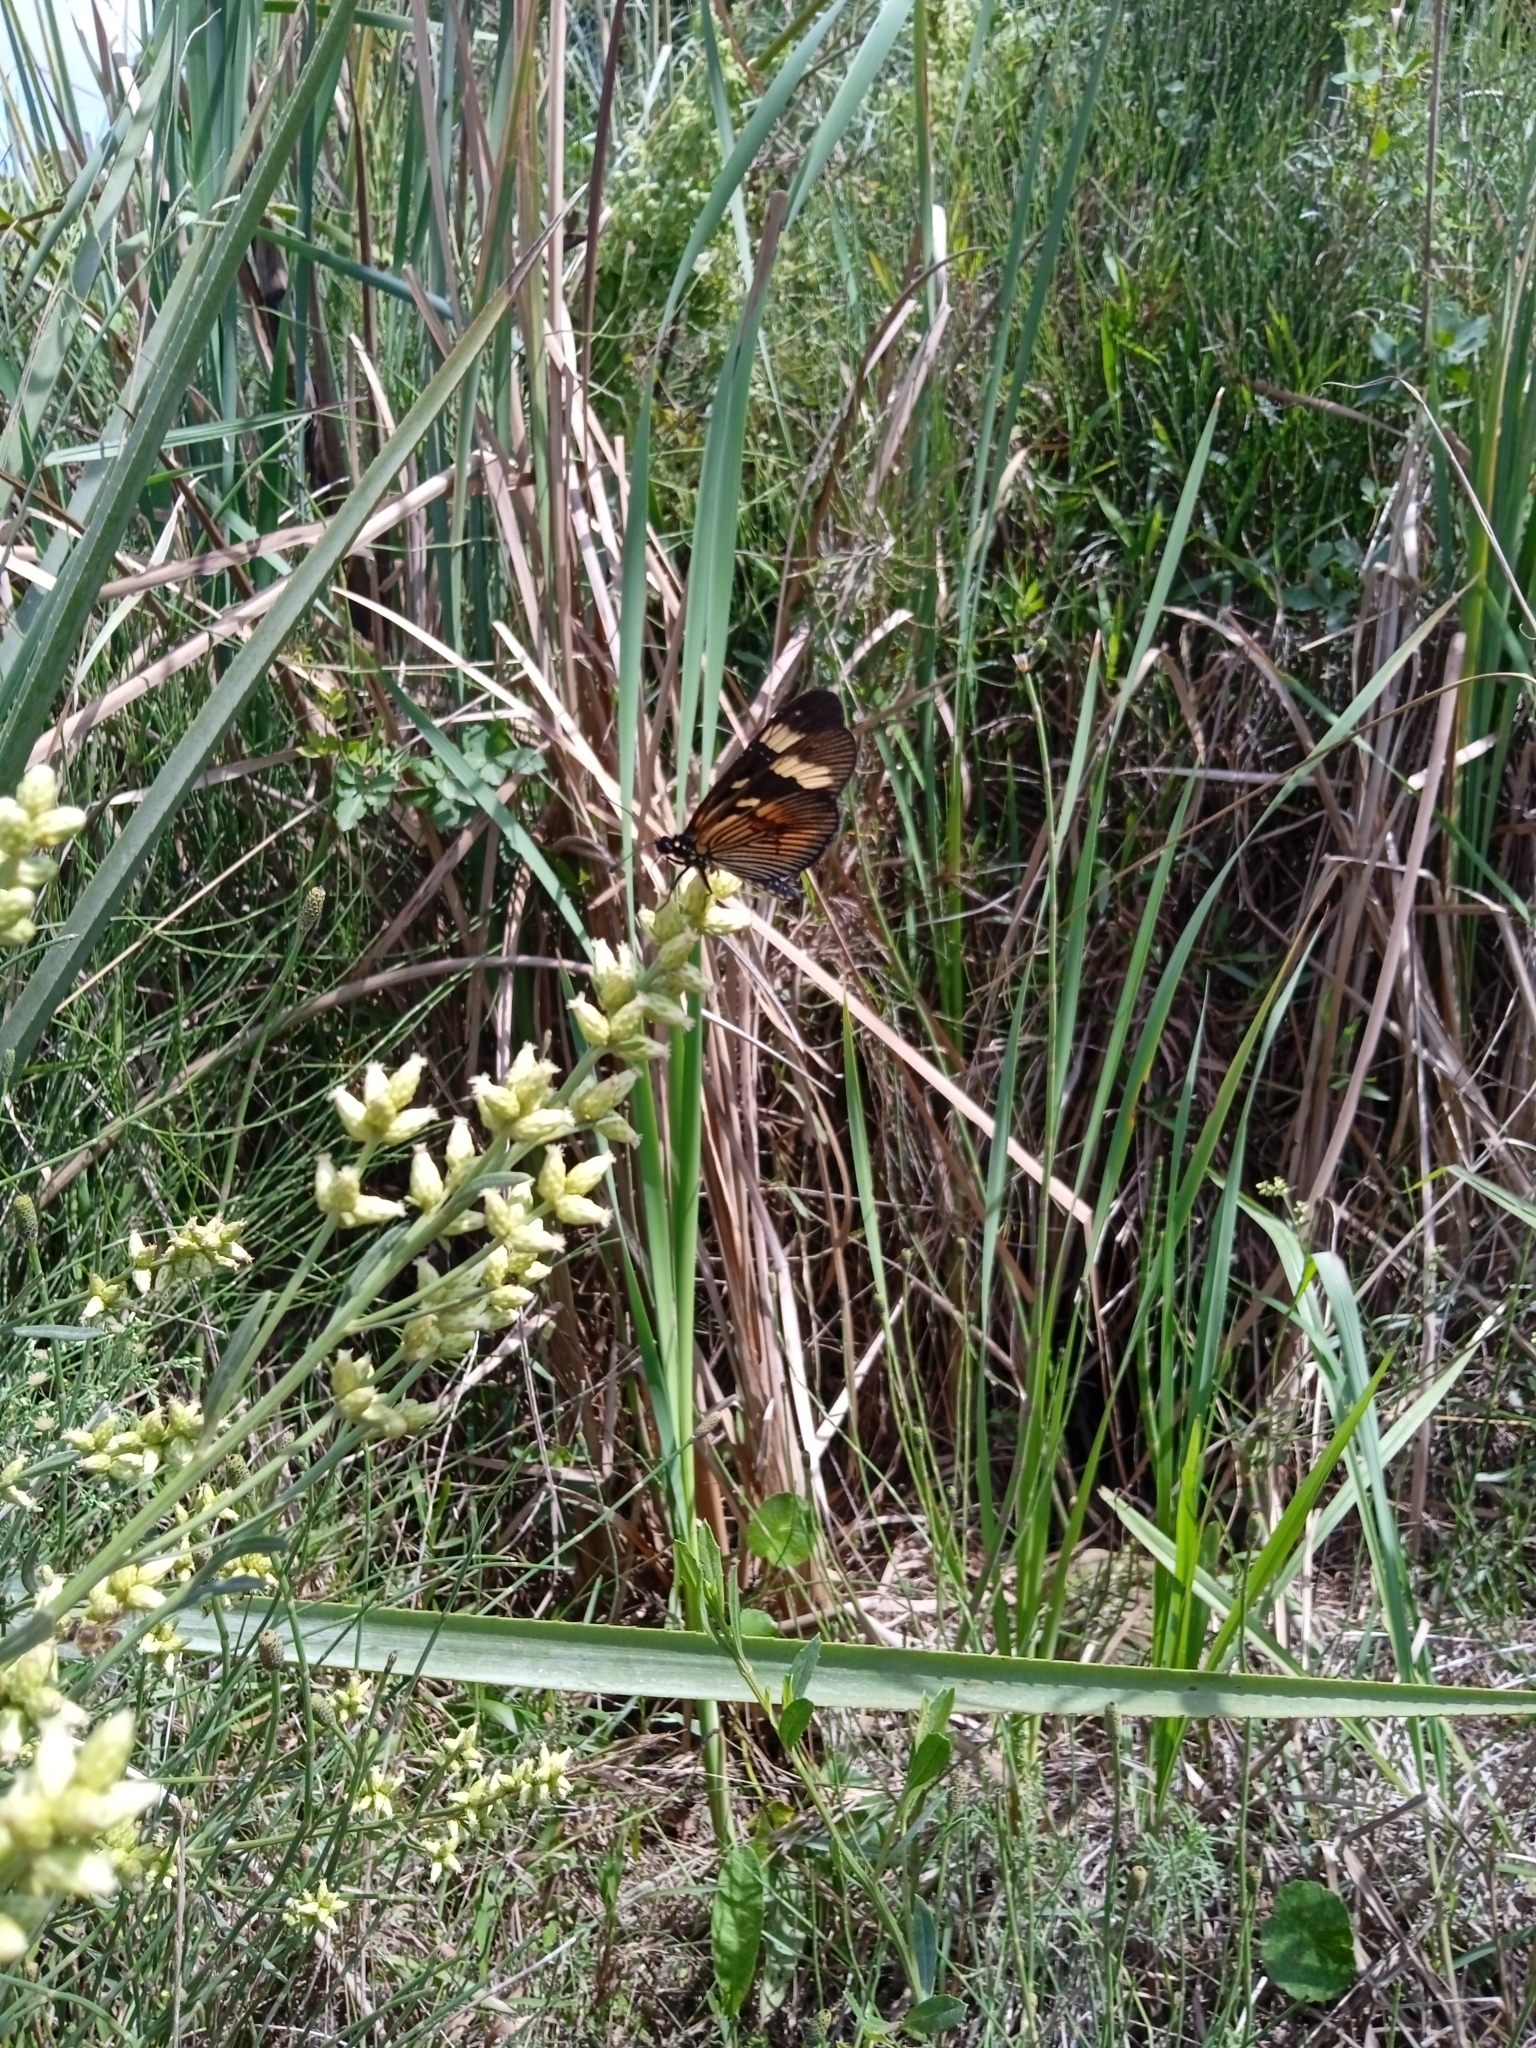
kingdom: Animalia
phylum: Arthropoda
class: Insecta
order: Lepidoptera
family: Nymphalidae
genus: Actinote
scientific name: Actinote pellenea
